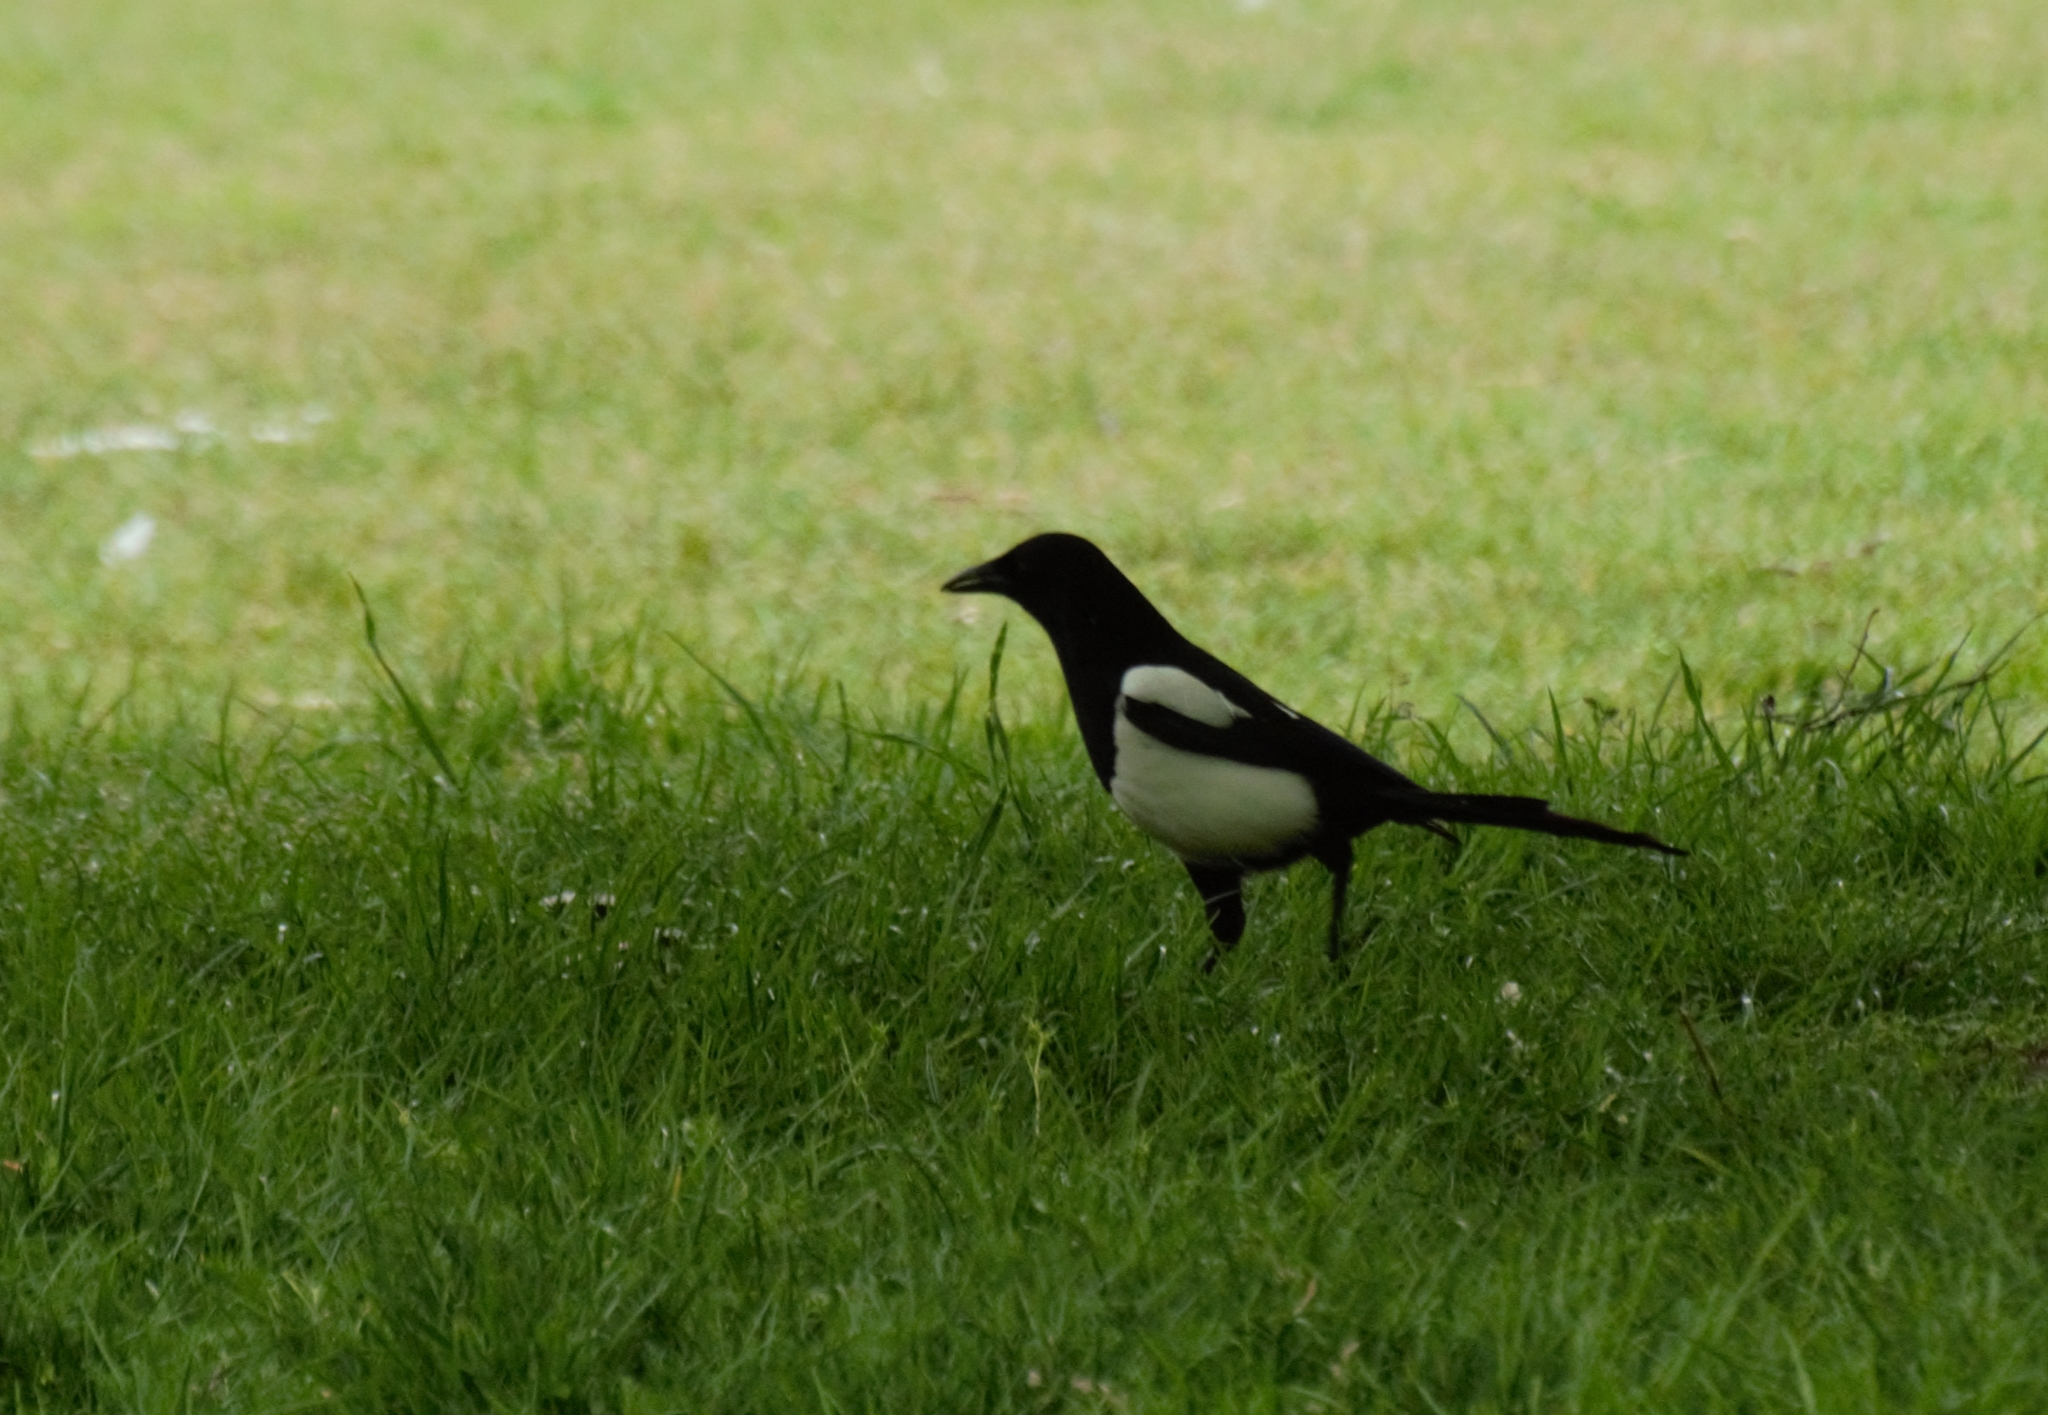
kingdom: Animalia
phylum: Chordata
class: Aves
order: Passeriformes
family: Corvidae
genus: Pica
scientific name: Pica pica
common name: Eurasian magpie
